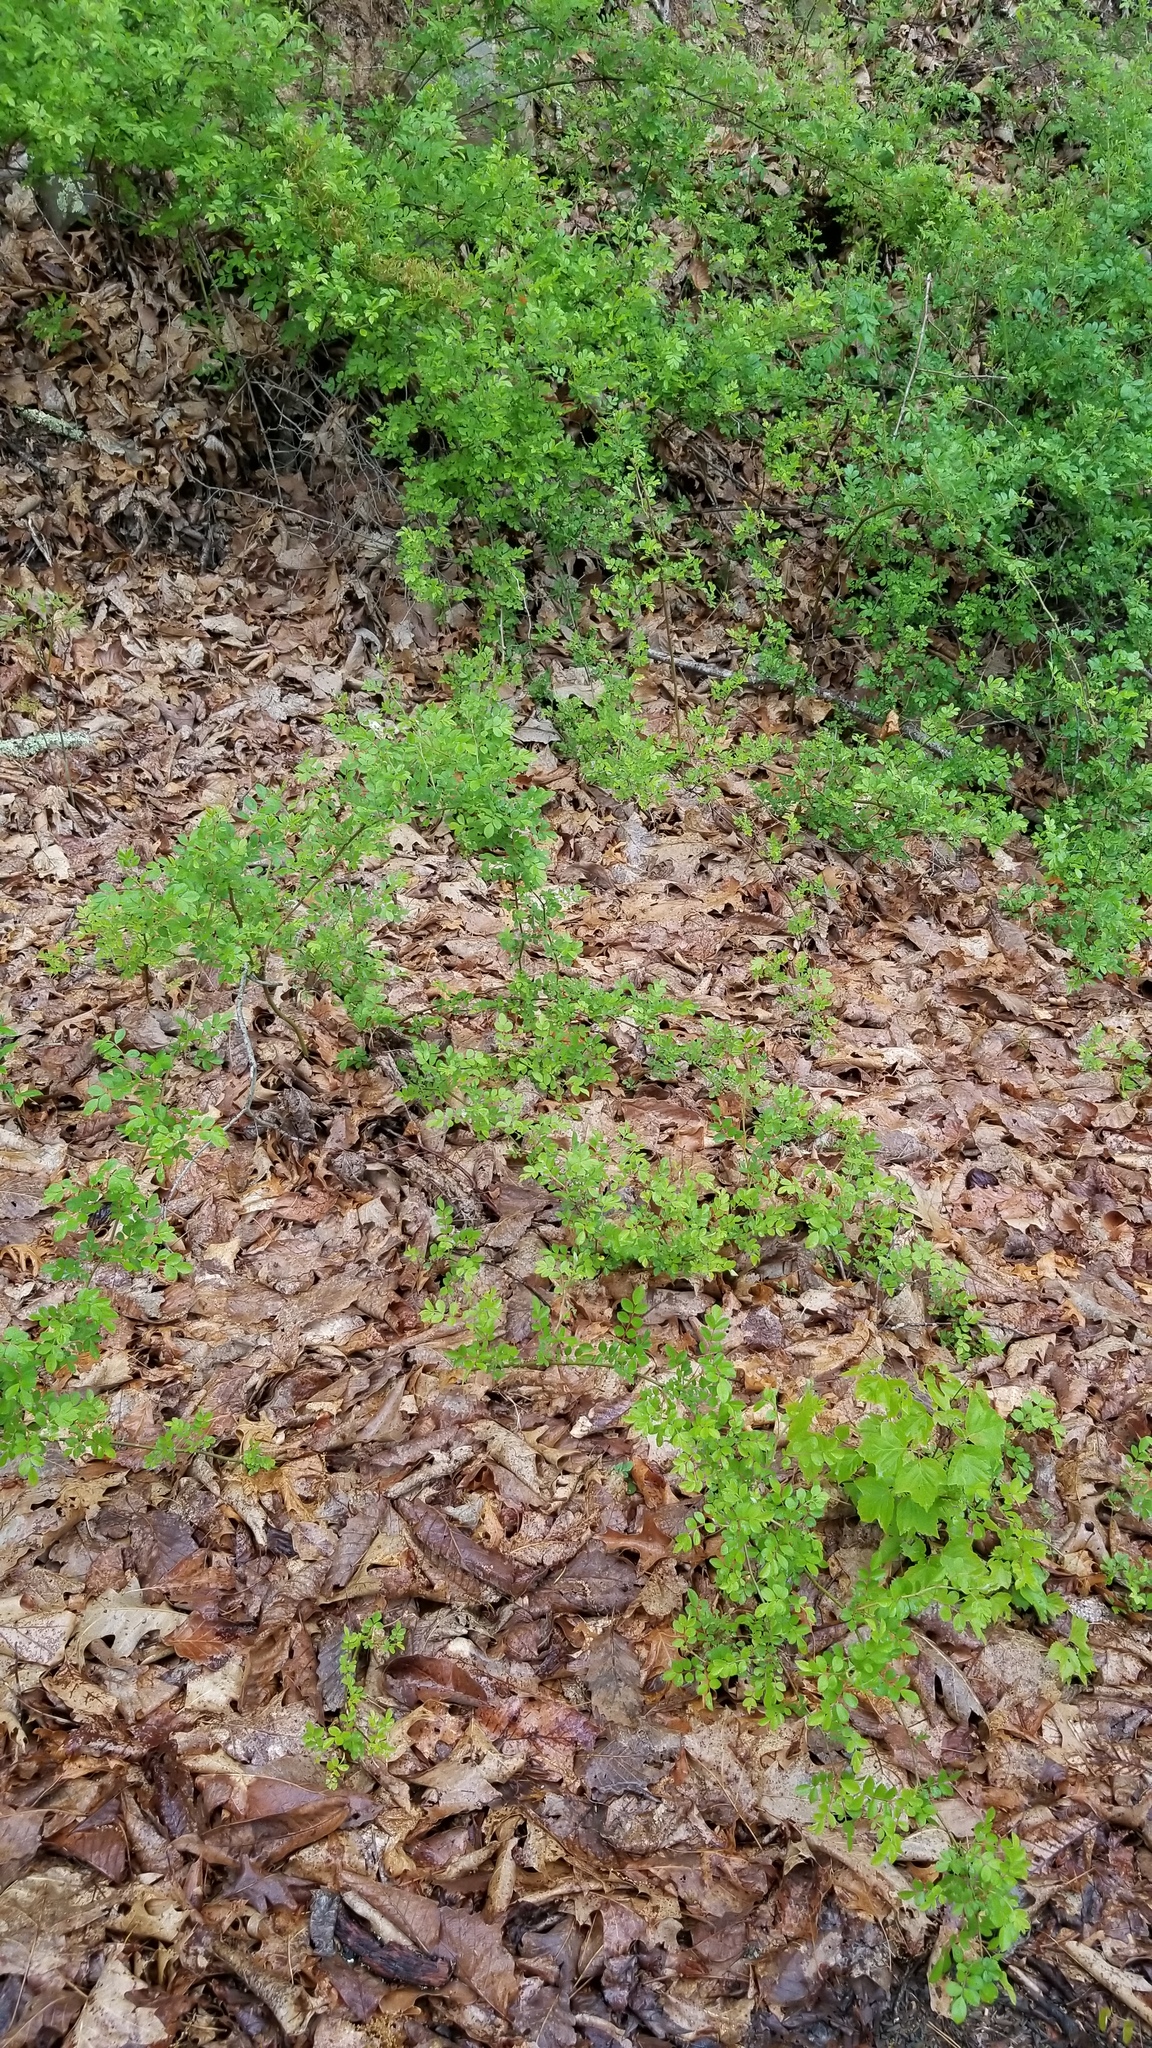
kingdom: Plantae
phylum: Tracheophyta
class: Magnoliopsida
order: Rosales
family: Rosaceae
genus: Rosa
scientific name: Rosa multiflora
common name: Multiflora rose
